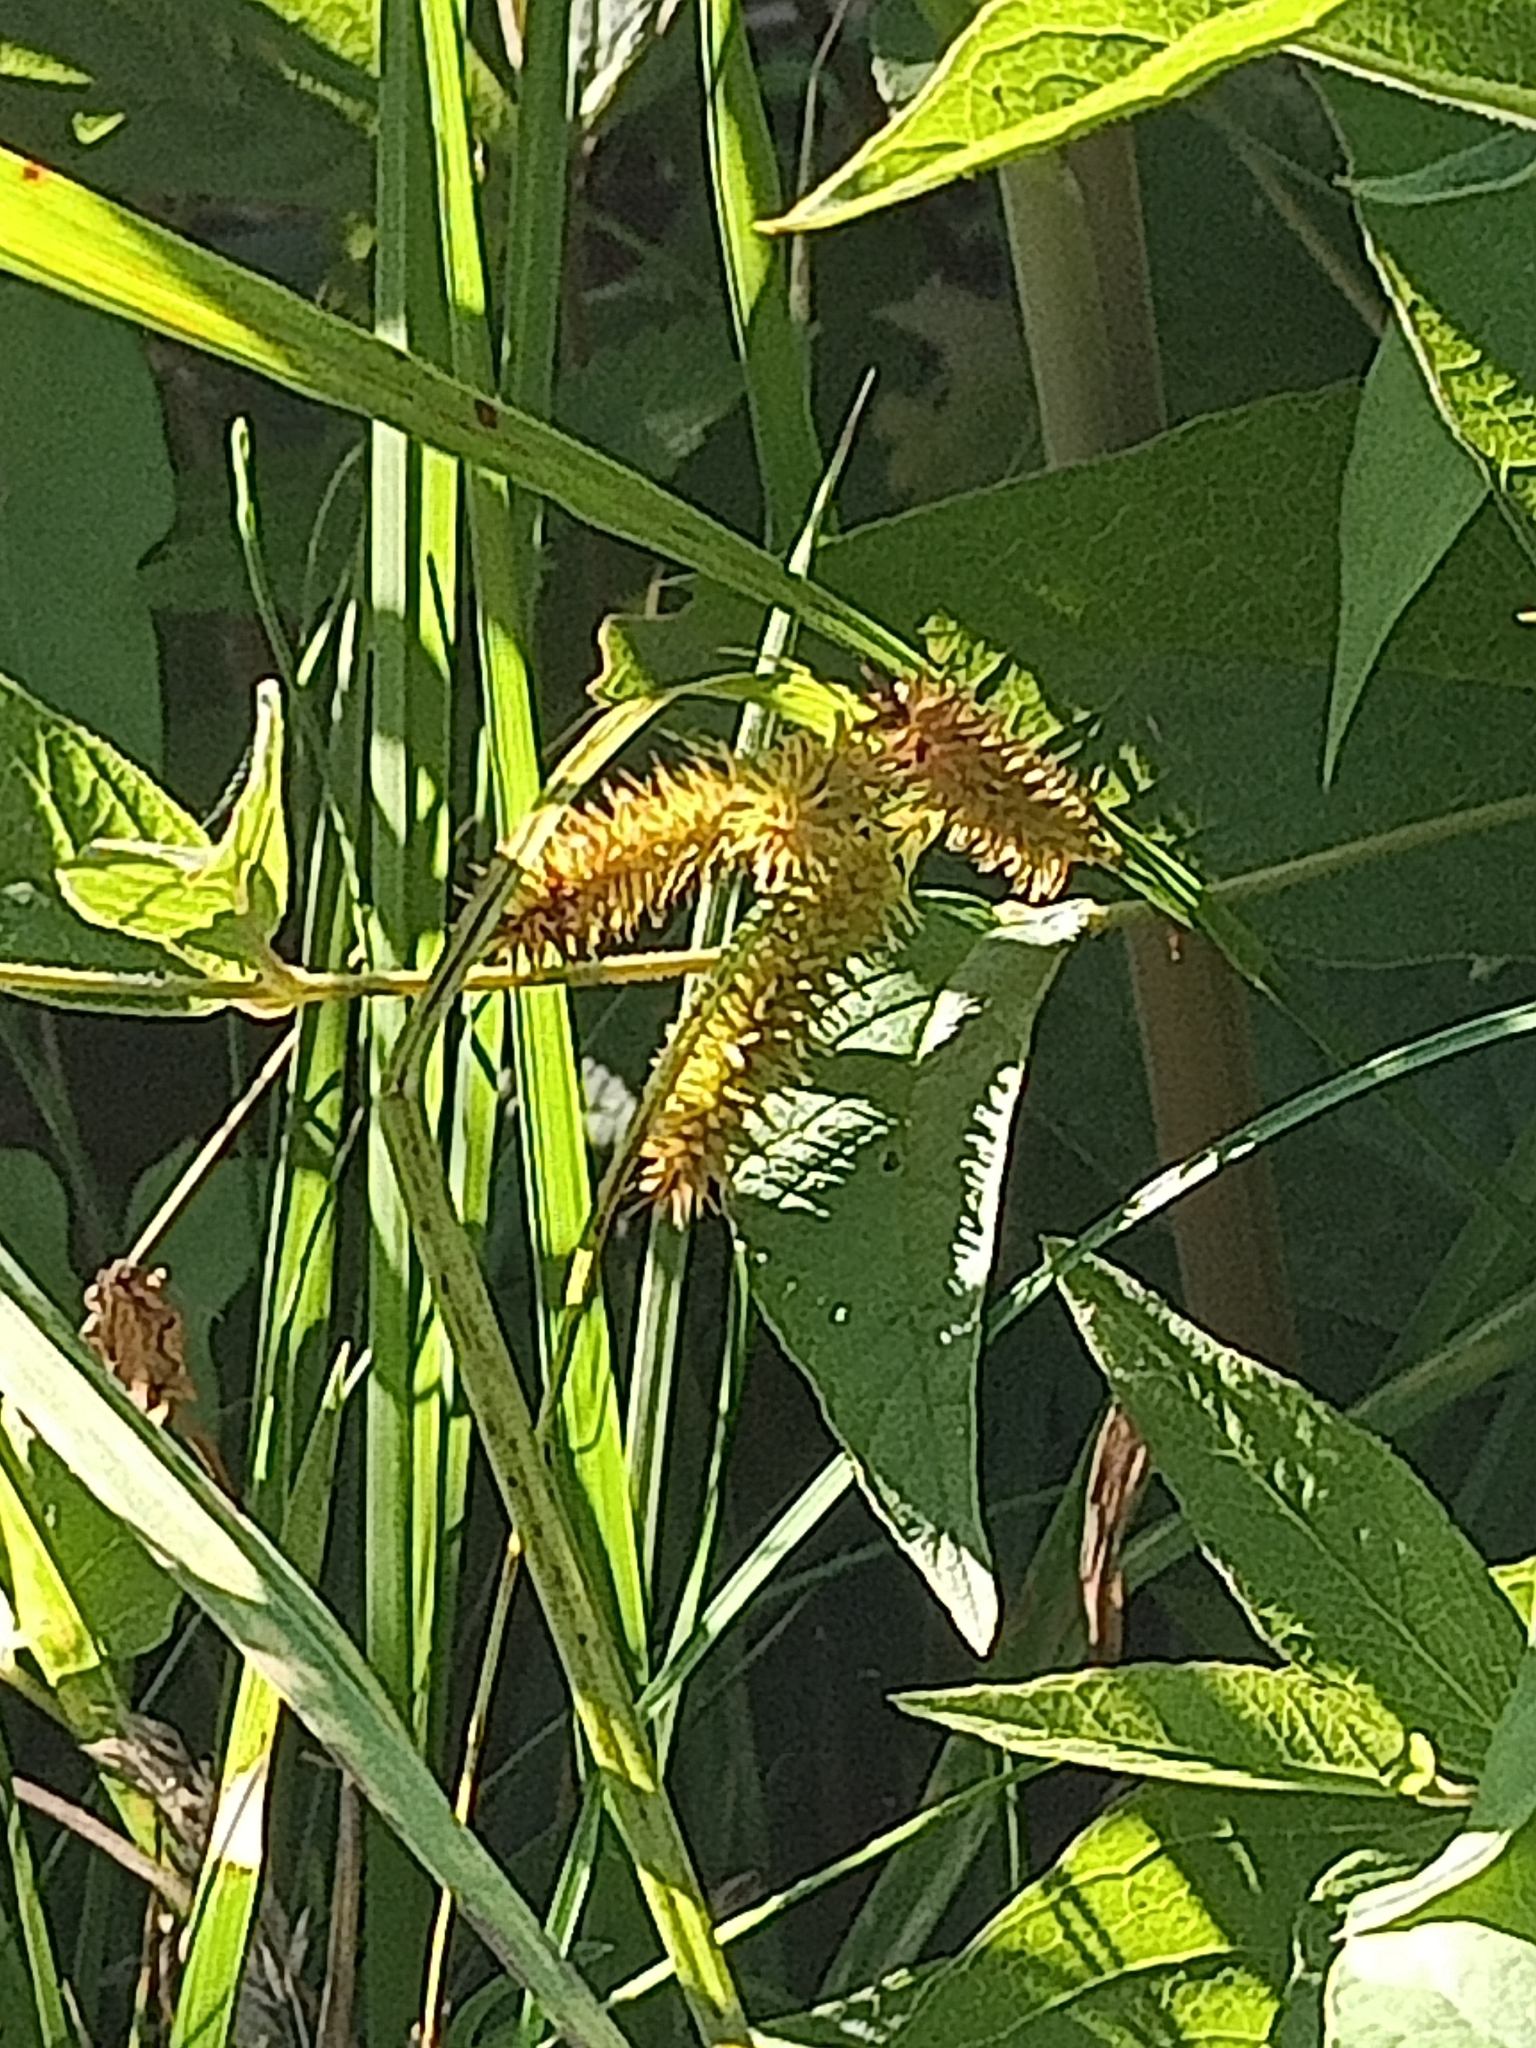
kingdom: Plantae
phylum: Tracheophyta
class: Liliopsida
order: Poales
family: Cyperaceae
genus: Carex
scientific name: Carex pseudocyperus
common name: Cyperus sedge
